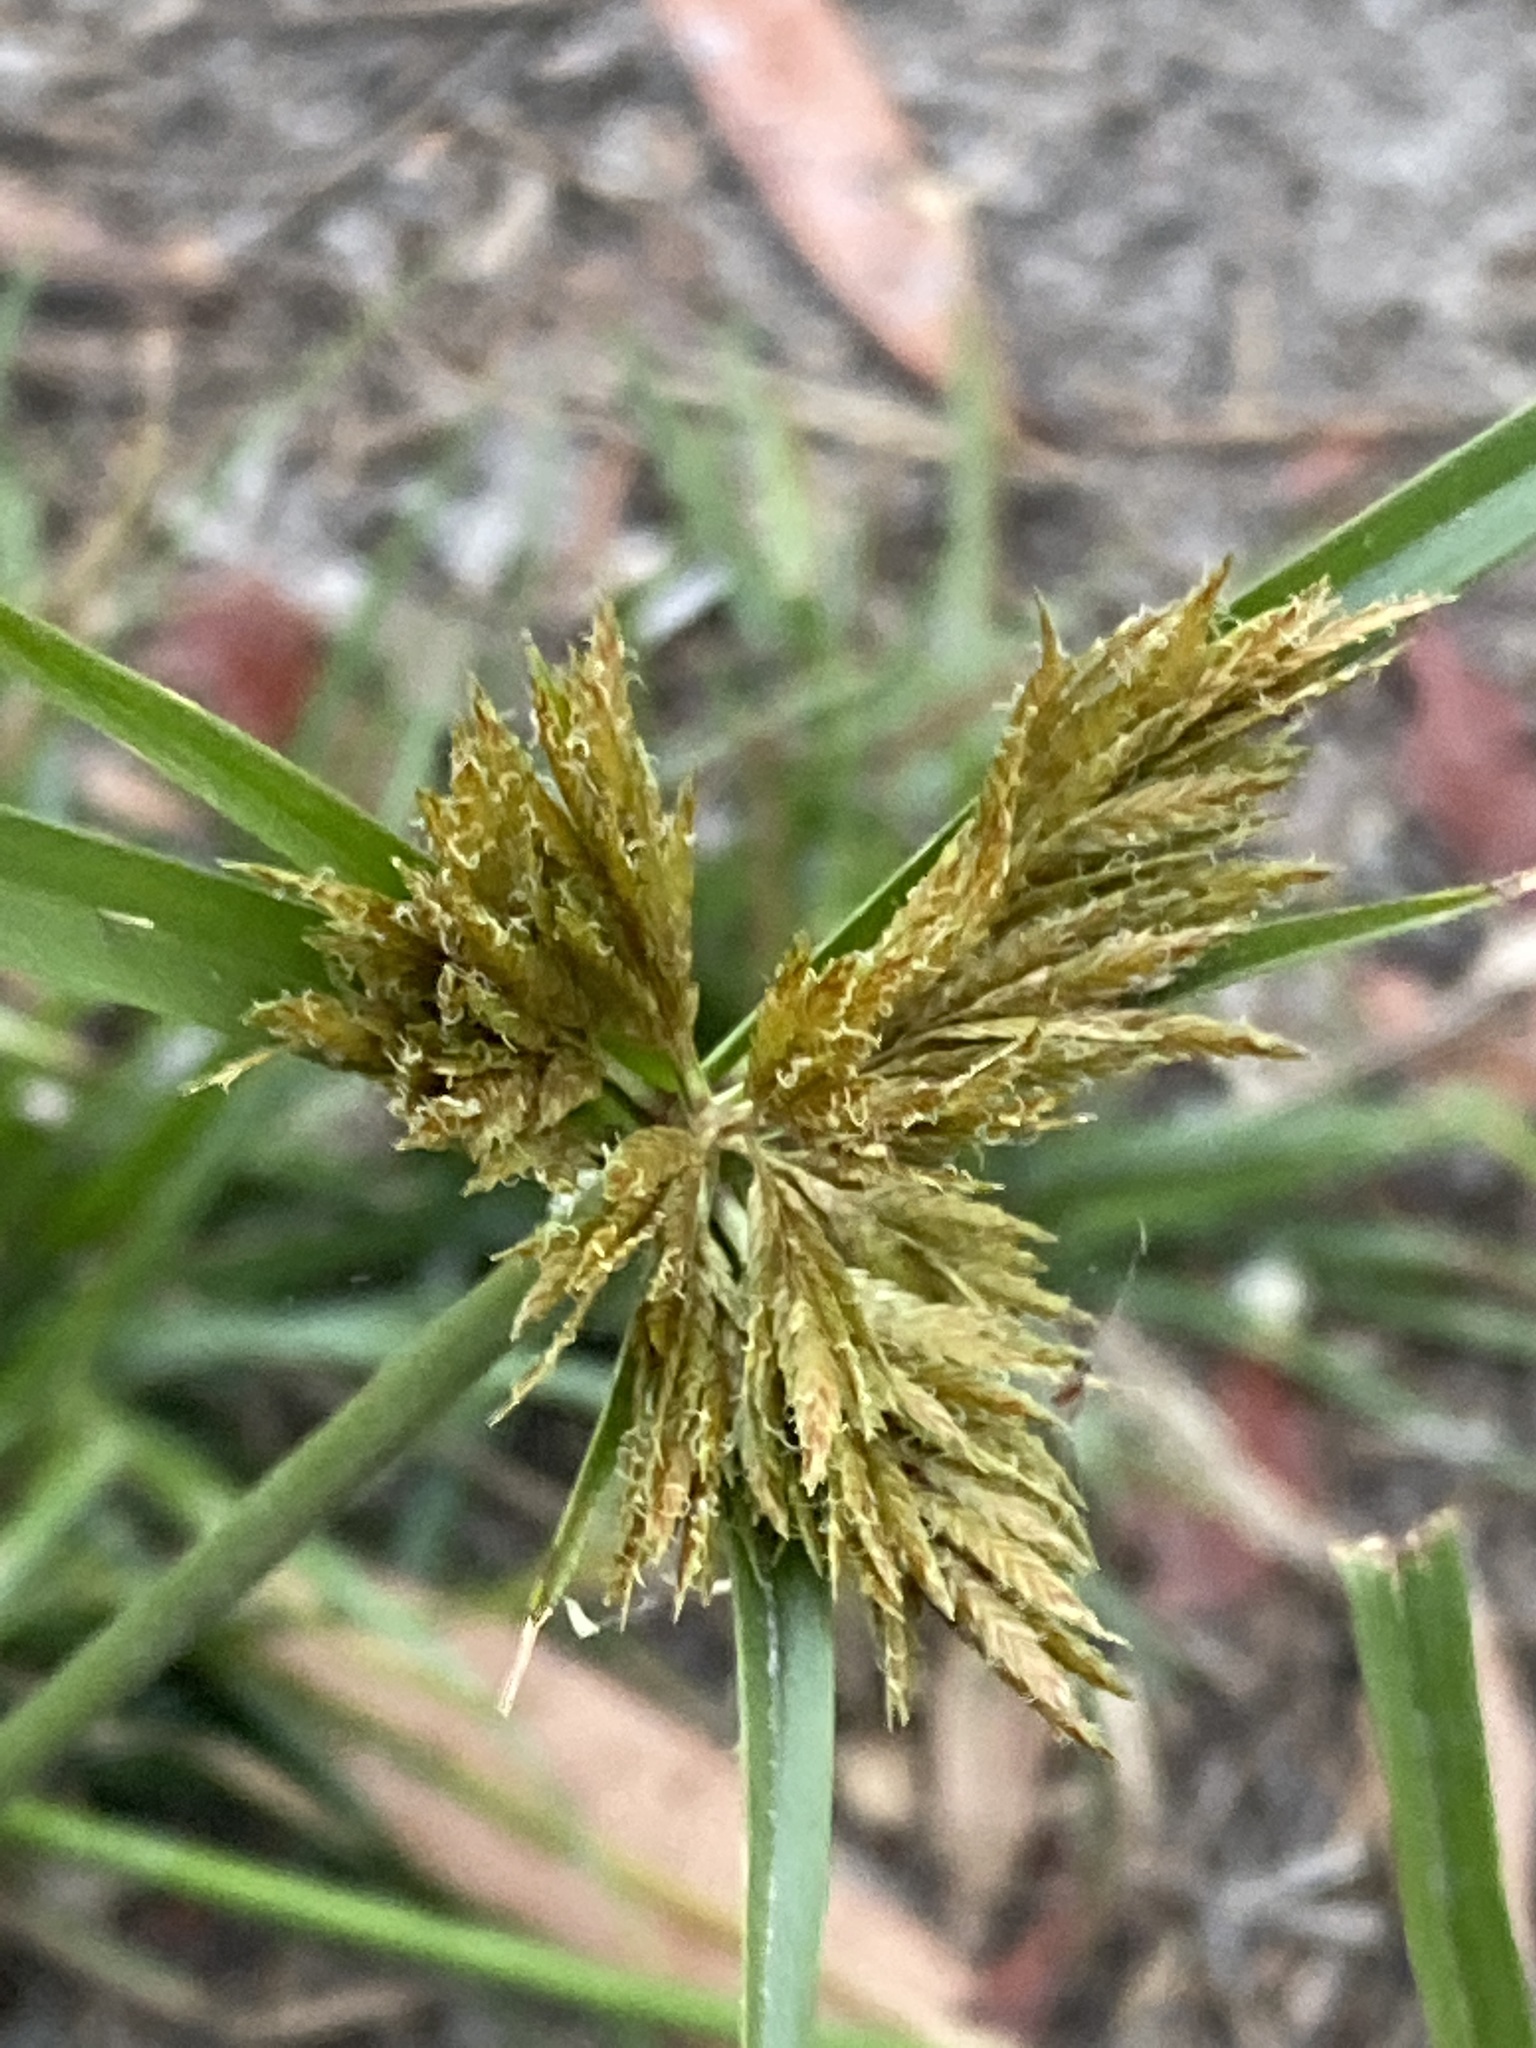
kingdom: Plantae
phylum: Tracheophyta
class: Liliopsida
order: Poales
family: Cyperaceae
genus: Cyperus
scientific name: Cyperus polystachyos
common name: Bunchy flat sedge
